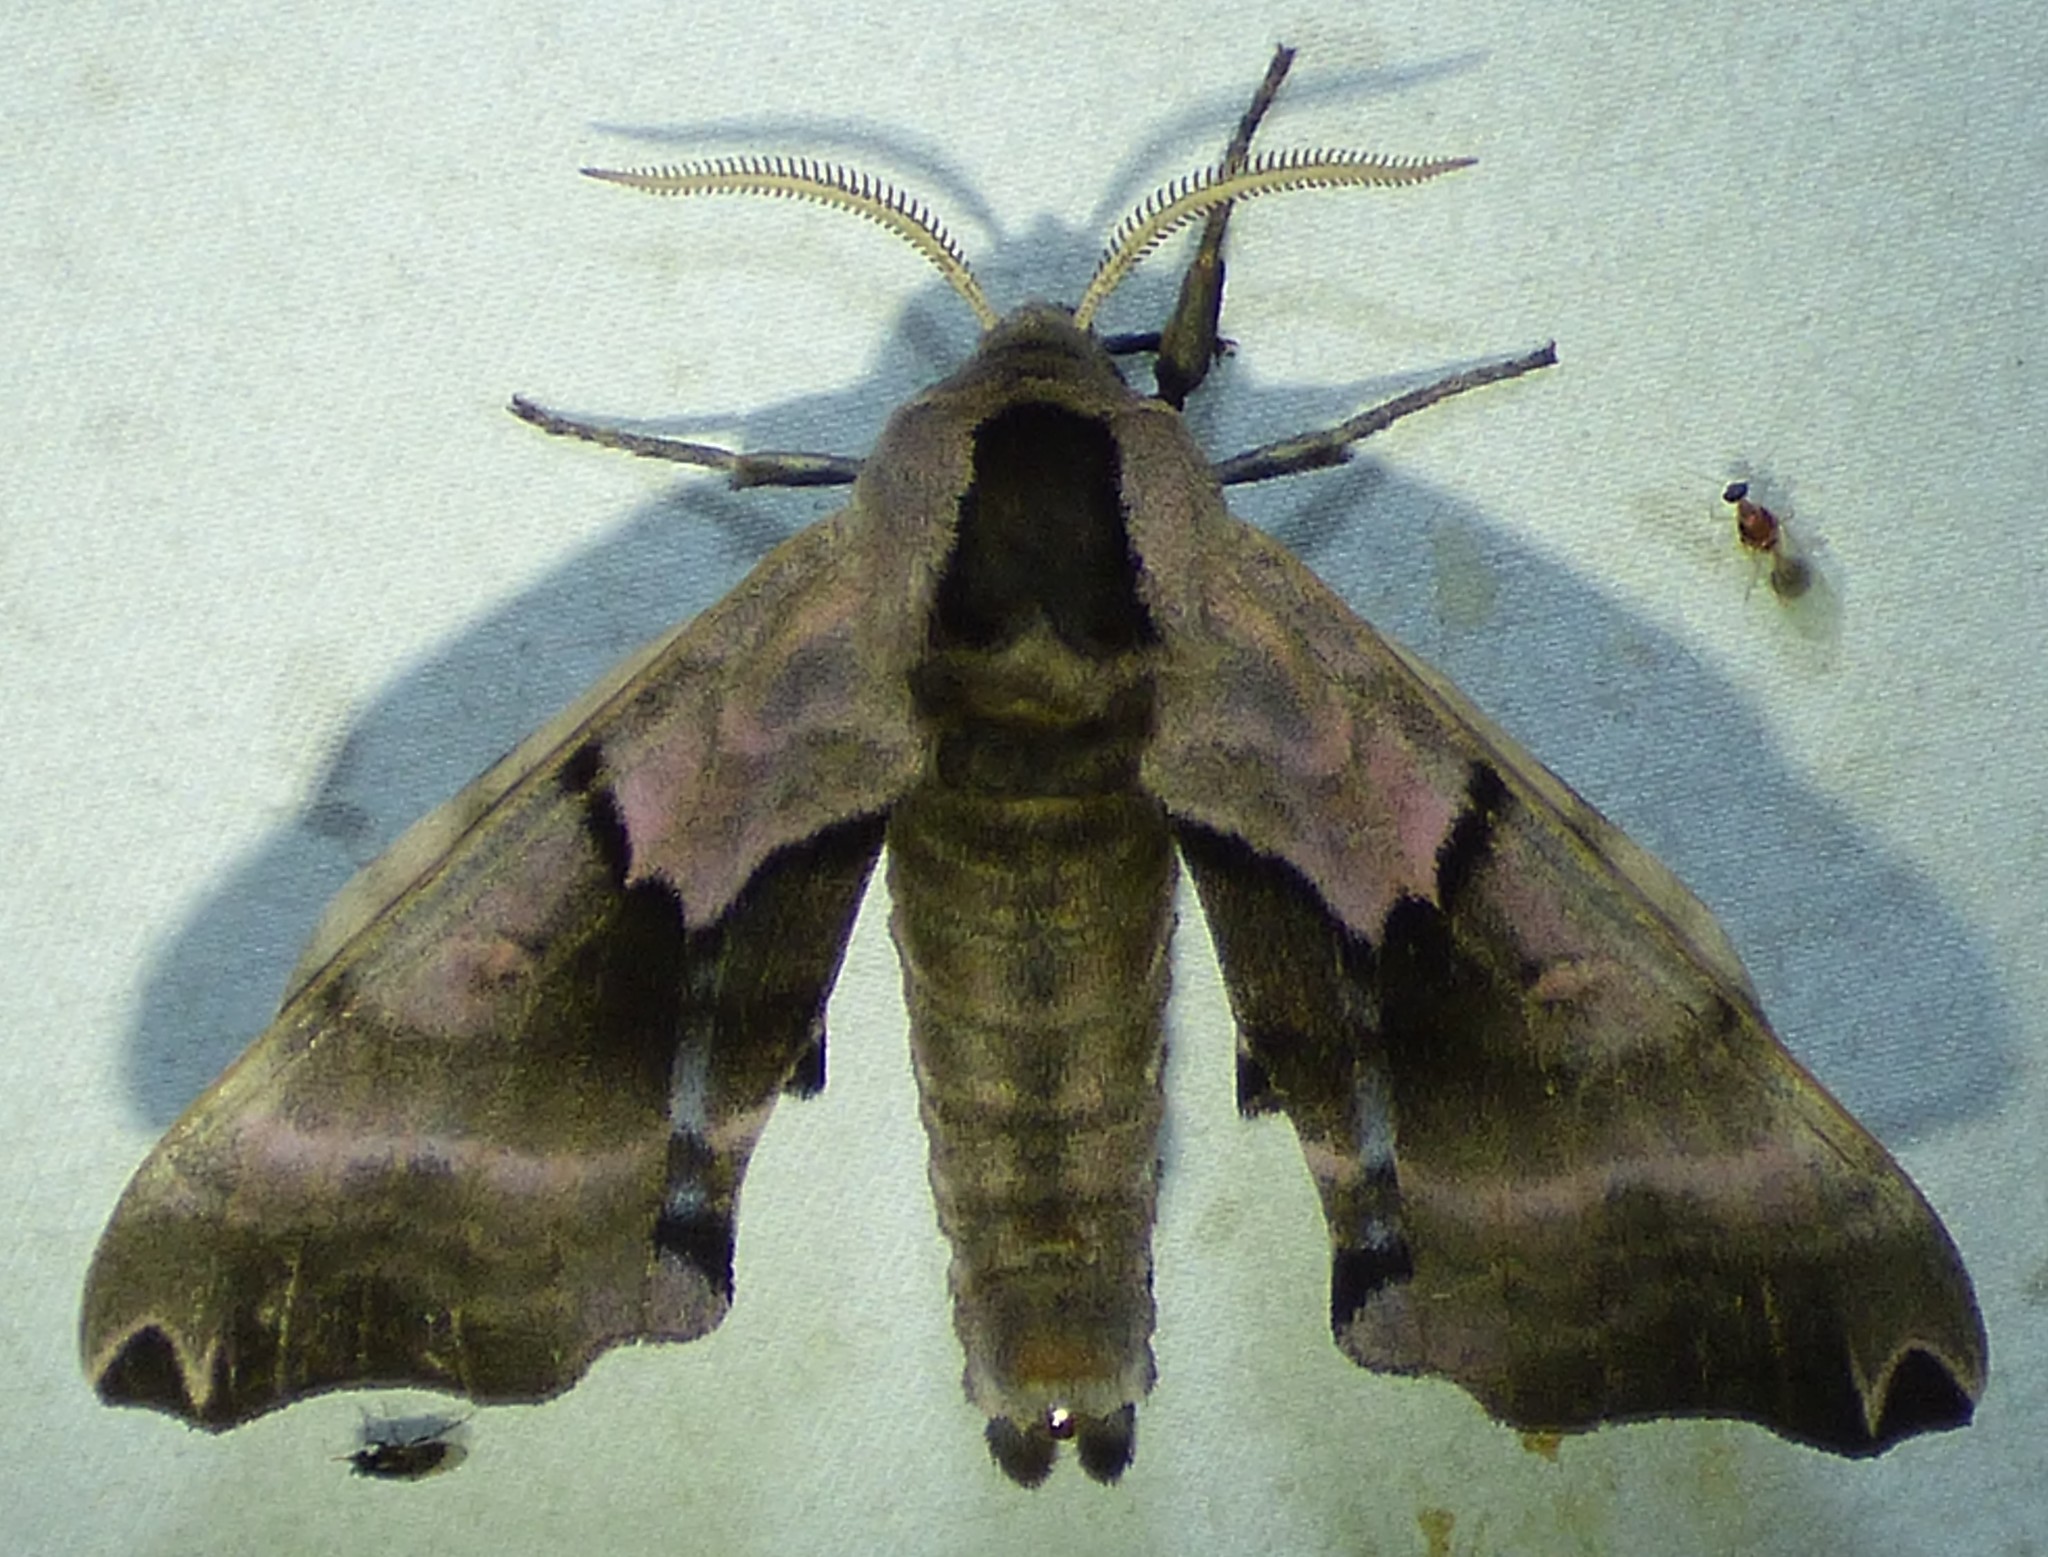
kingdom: Animalia
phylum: Arthropoda
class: Insecta
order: Lepidoptera
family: Sphingidae
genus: Smerinthus
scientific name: Smerinthus jamaicensis
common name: Twin spotted sphinx
